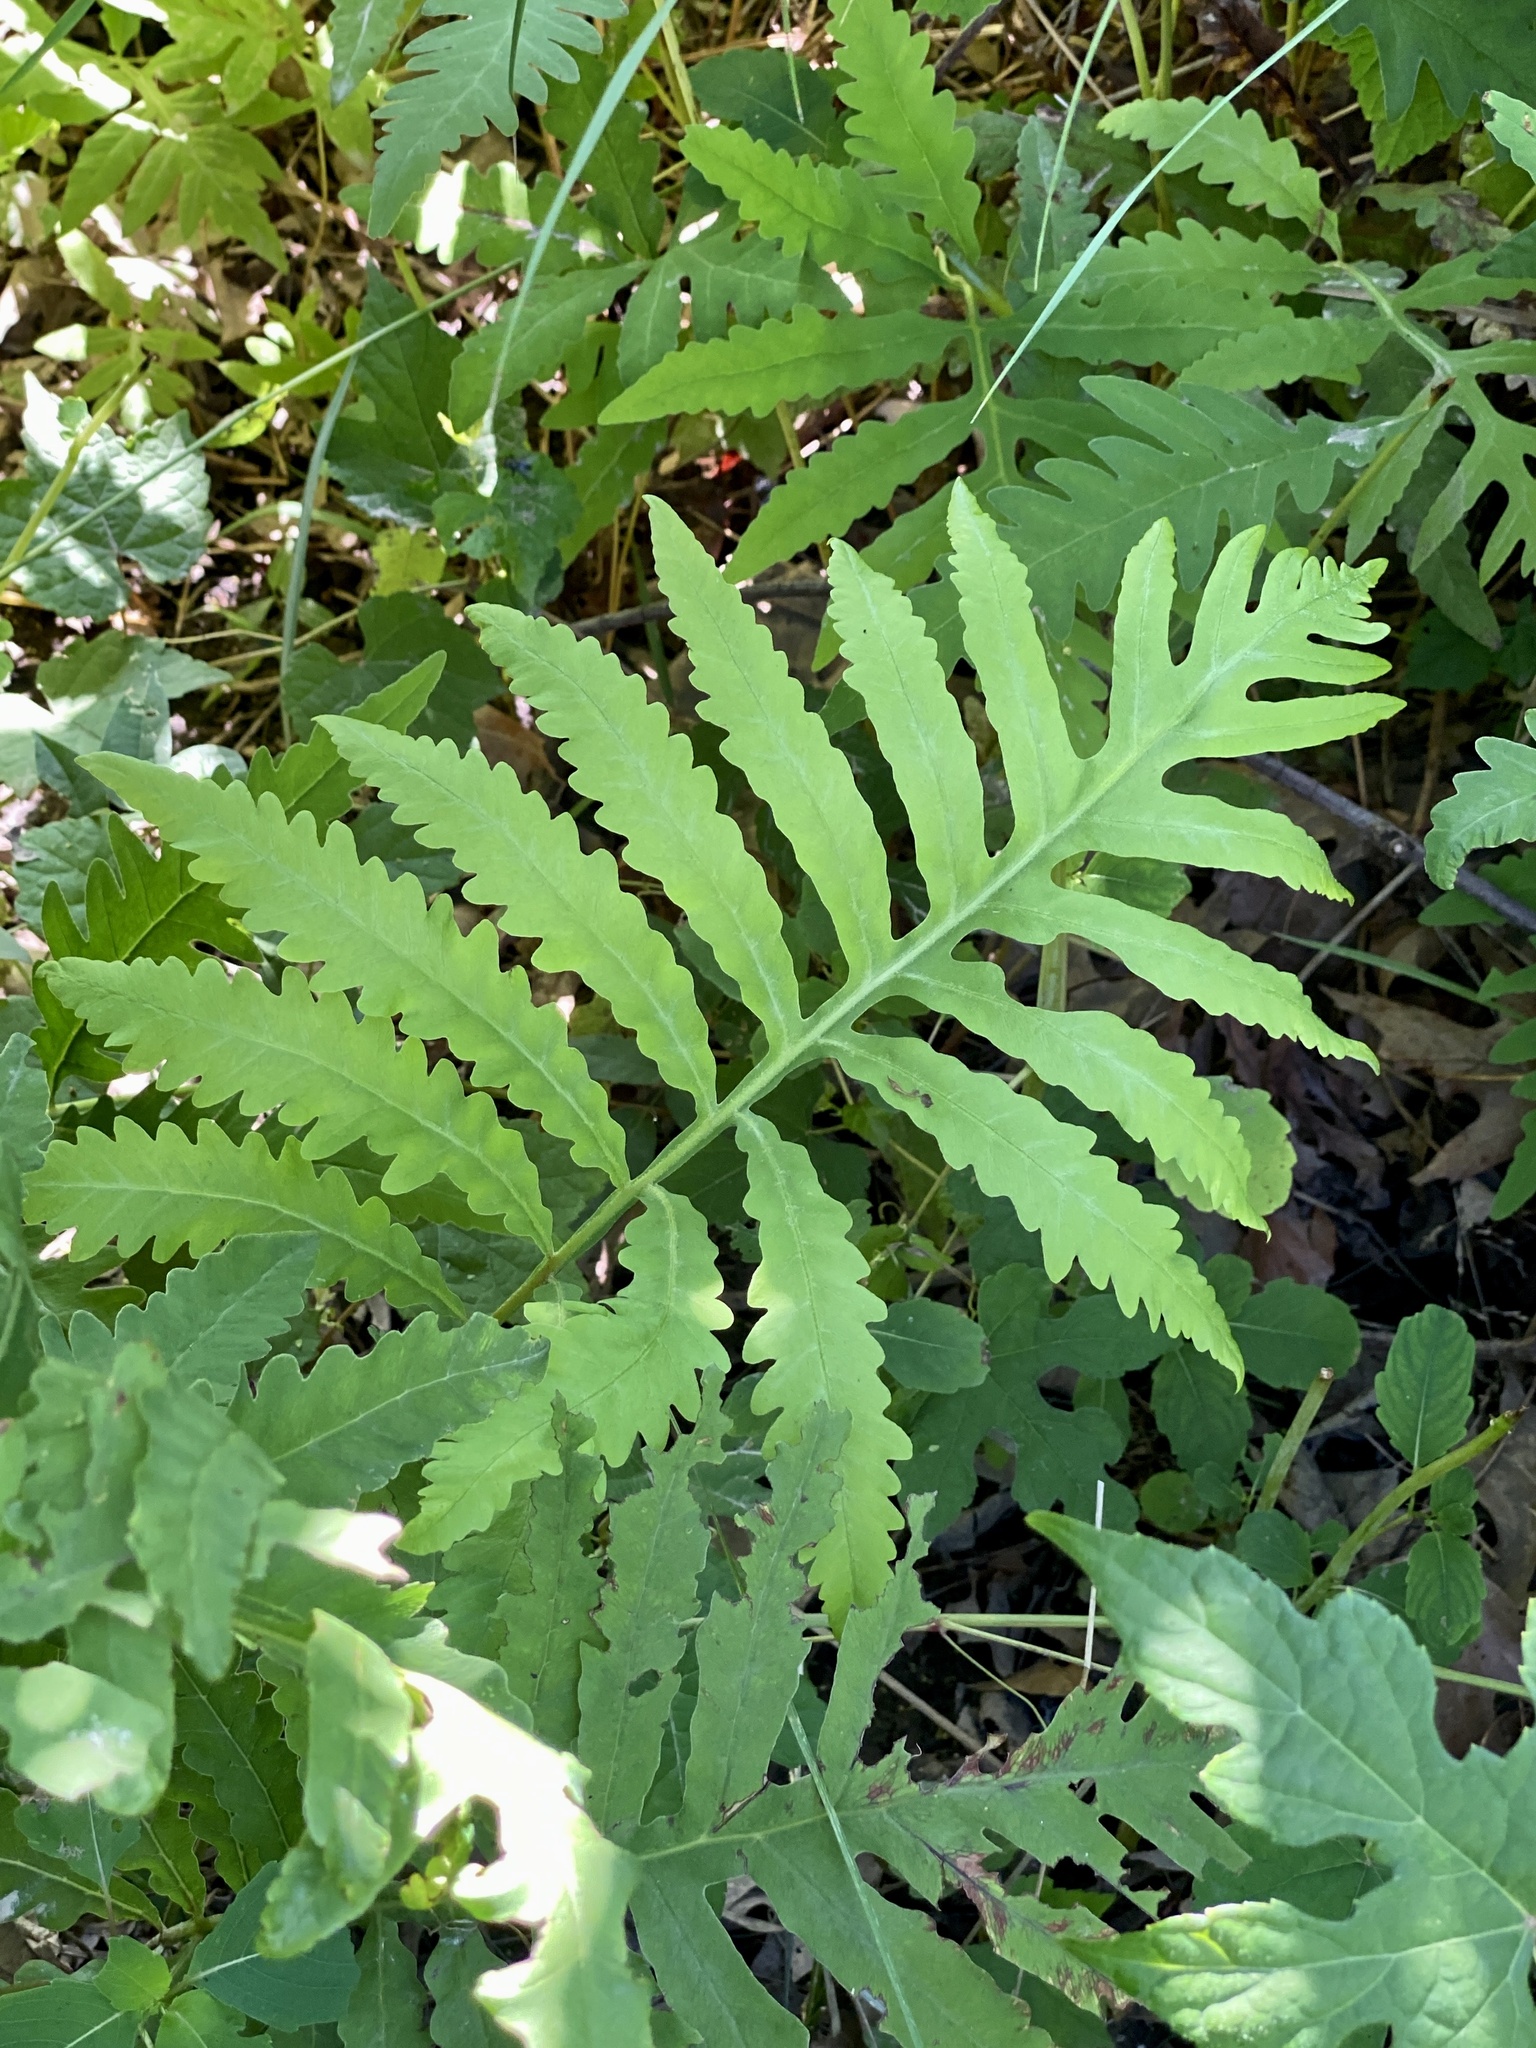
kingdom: Plantae
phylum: Tracheophyta
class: Polypodiopsida
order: Polypodiales
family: Onocleaceae
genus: Onoclea
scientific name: Onoclea sensibilis
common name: Sensitive fern
